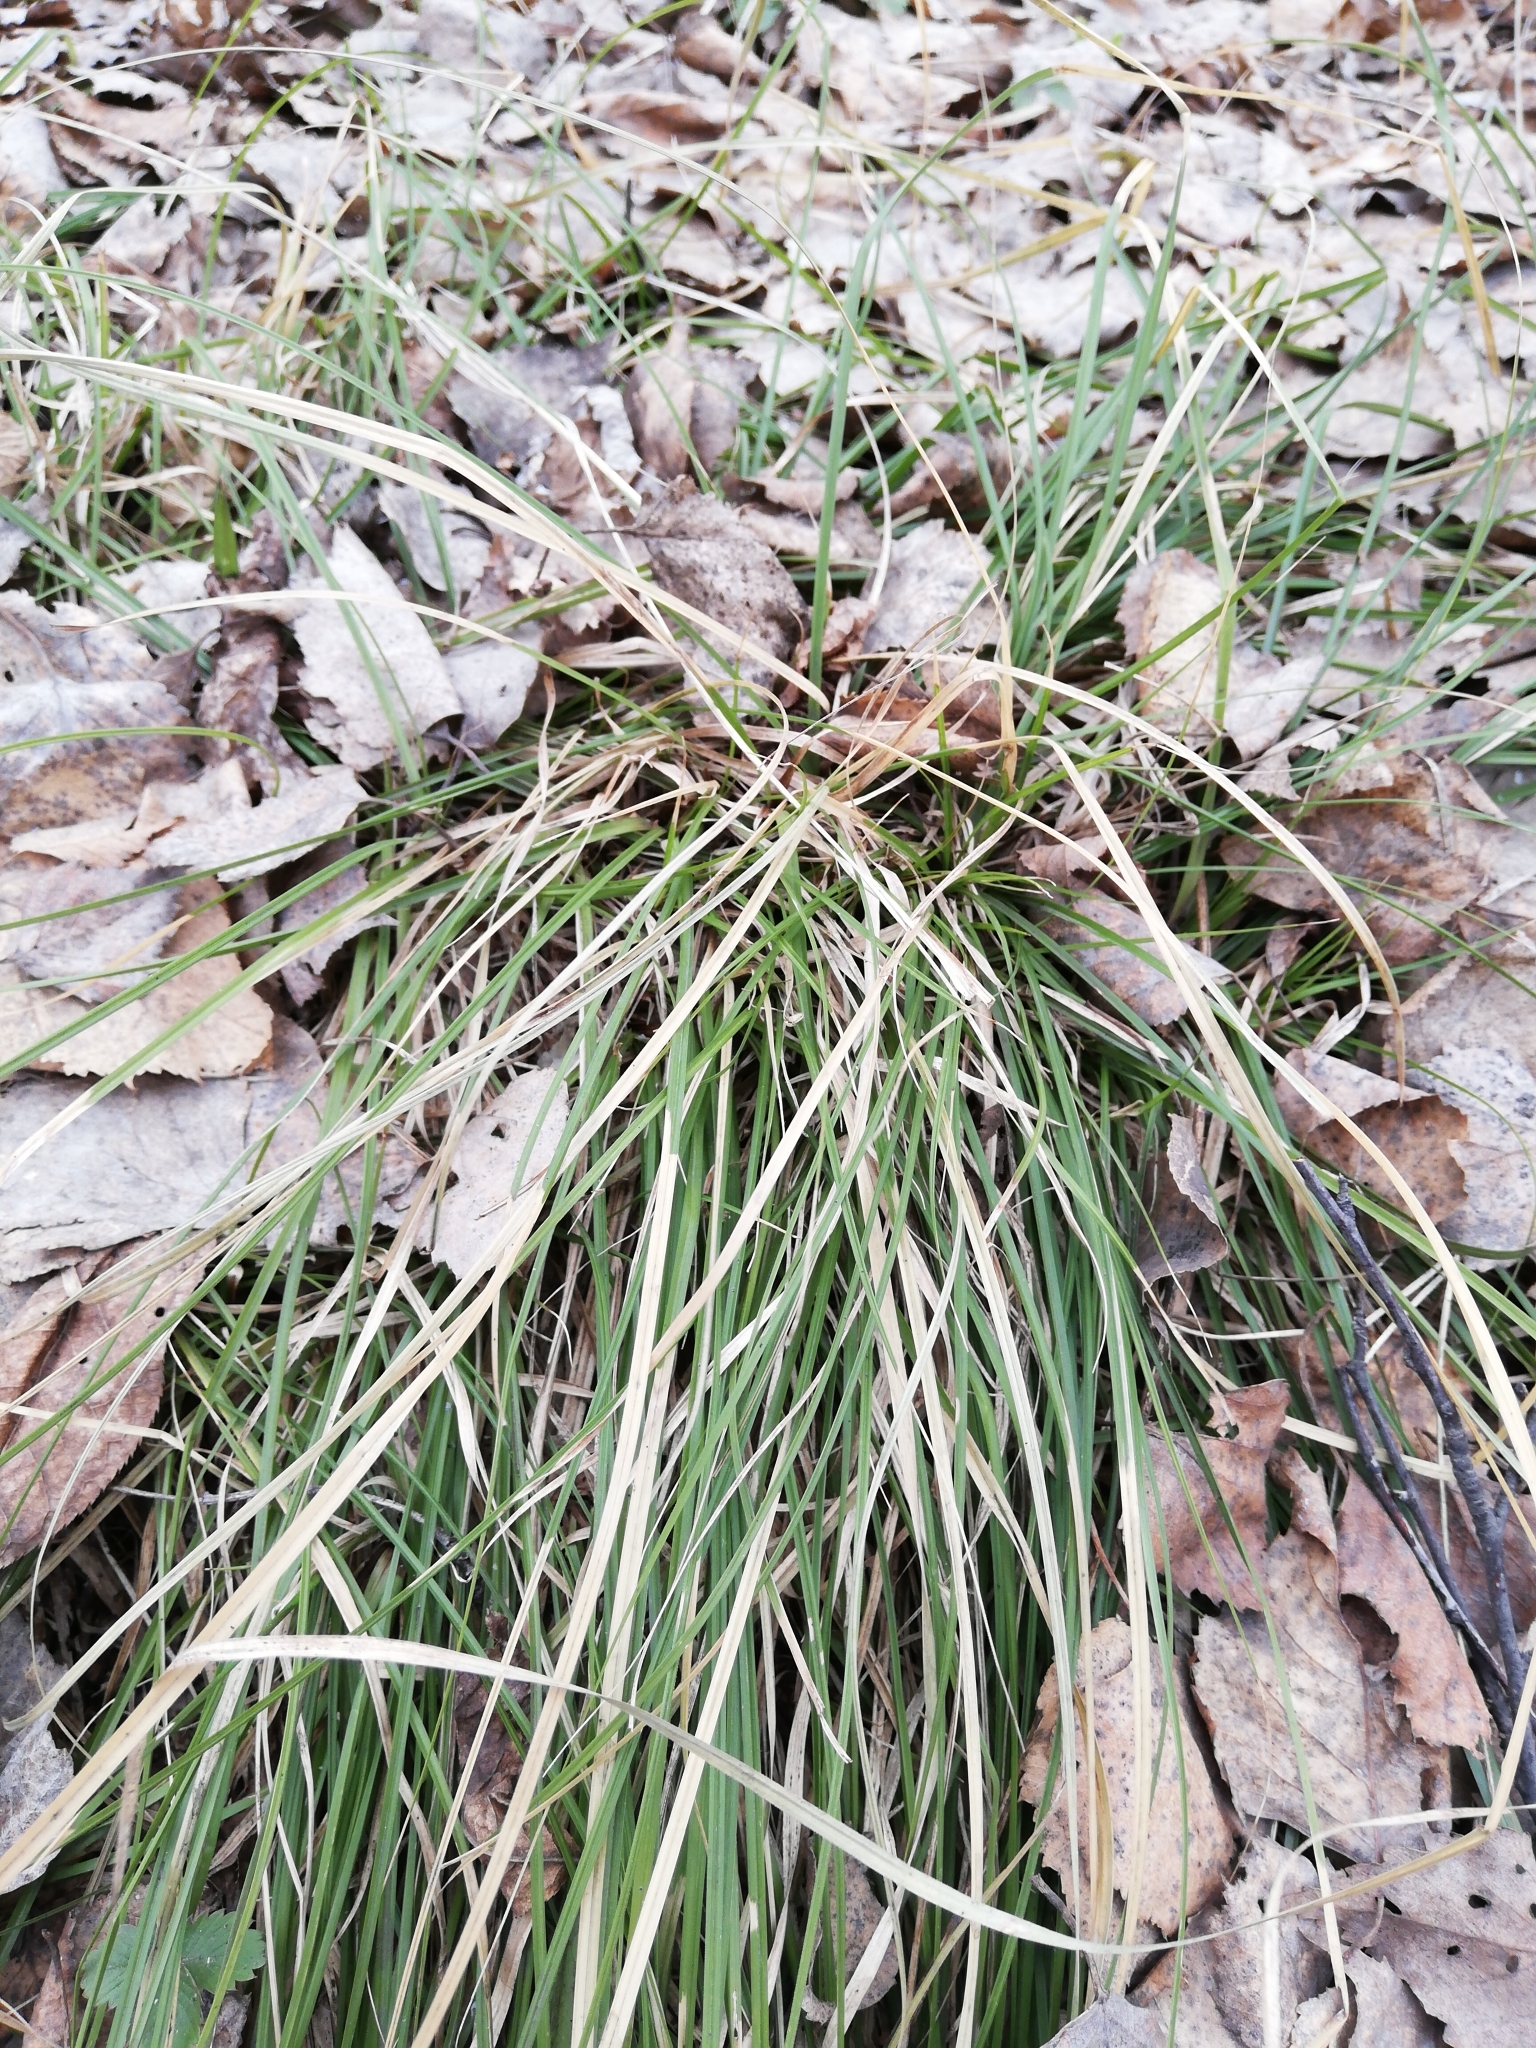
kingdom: Plantae
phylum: Tracheophyta
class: Liliopsida
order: Poales
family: Cyperaceae
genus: Carex
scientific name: Carex pediformis
